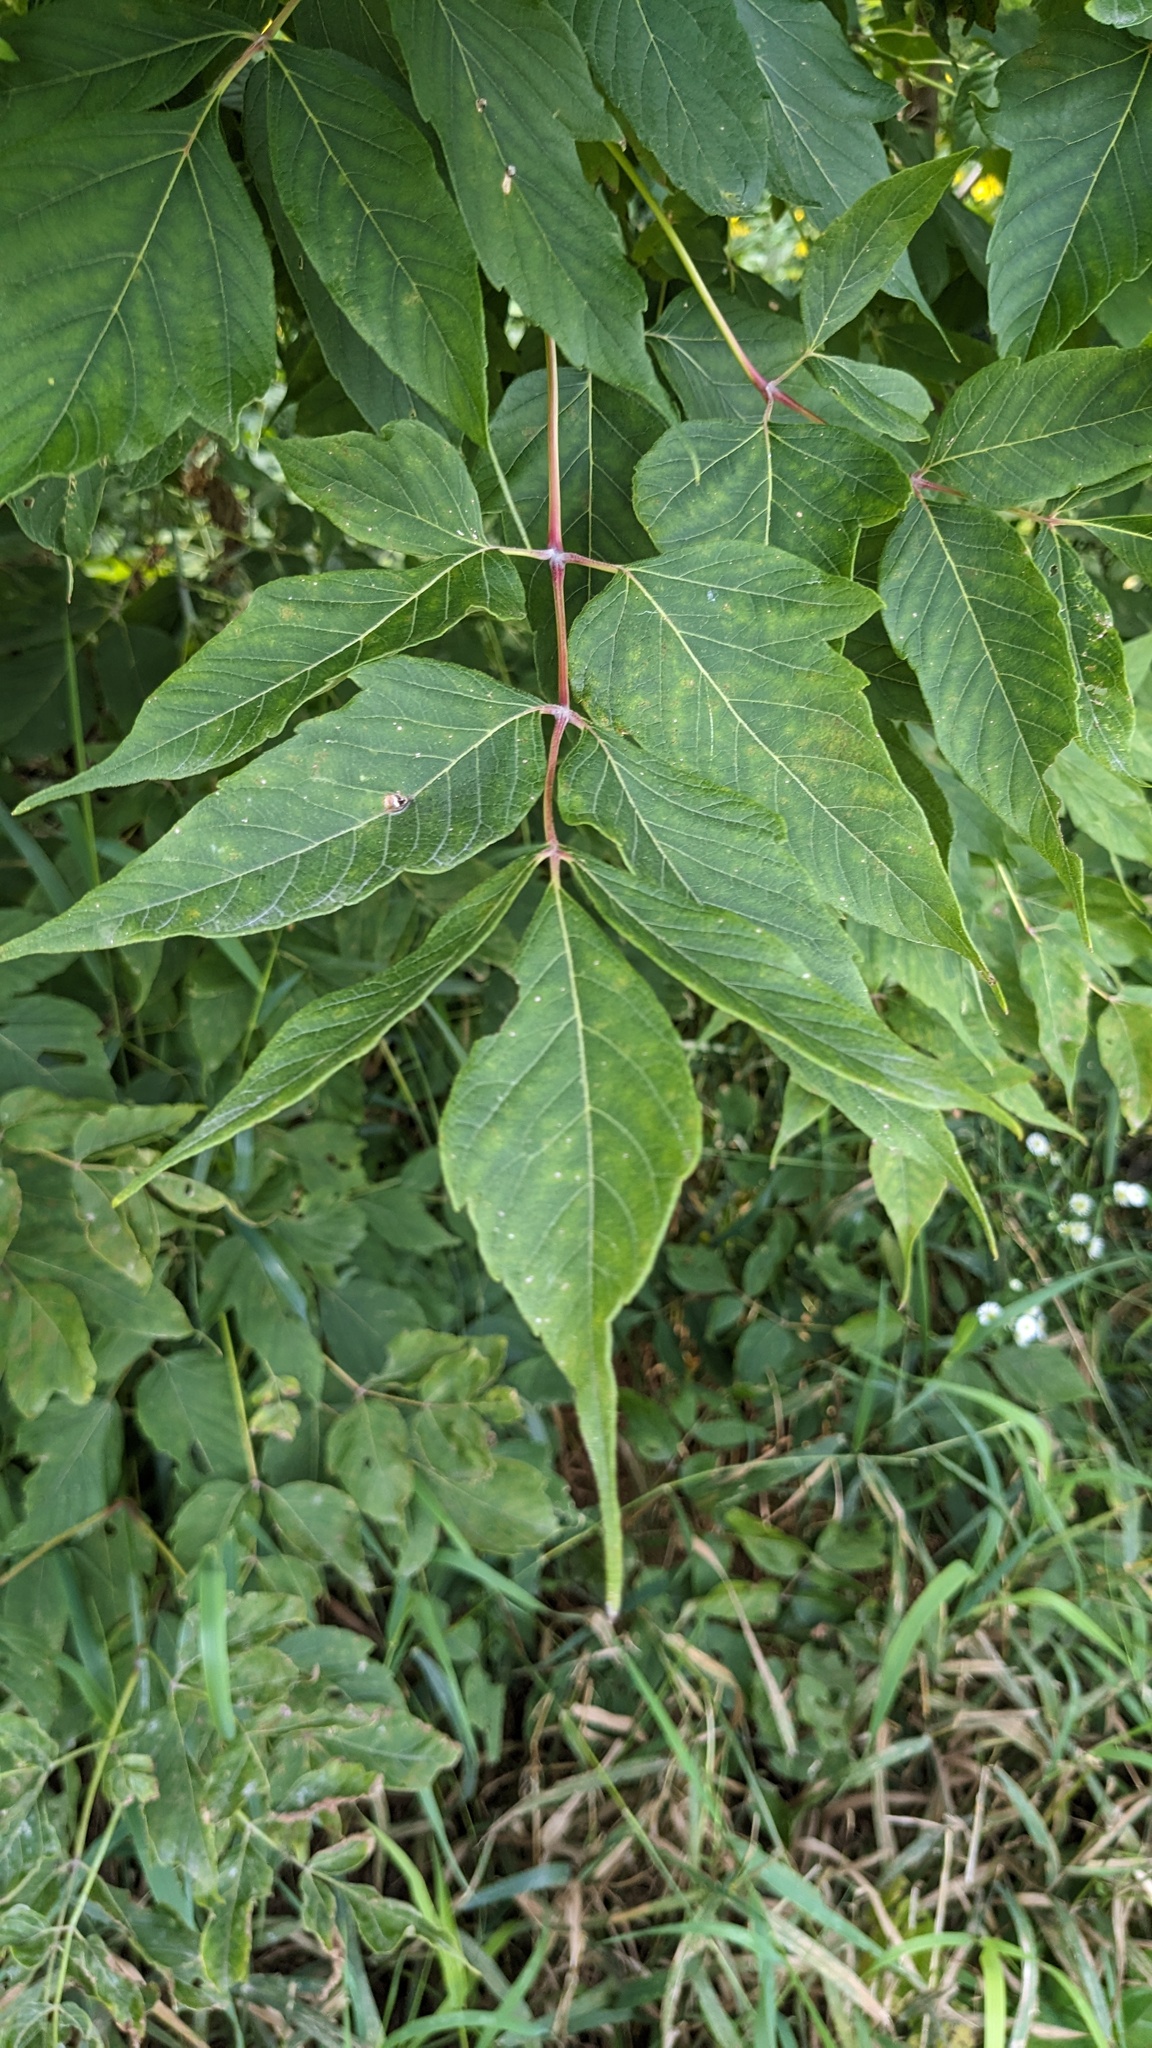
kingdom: Plantae
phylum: Tracheophyta
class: Magnoliopsida
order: Sapindales
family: Sapindaceae
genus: Acer
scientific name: Acer negundo
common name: Ashleaf maple
